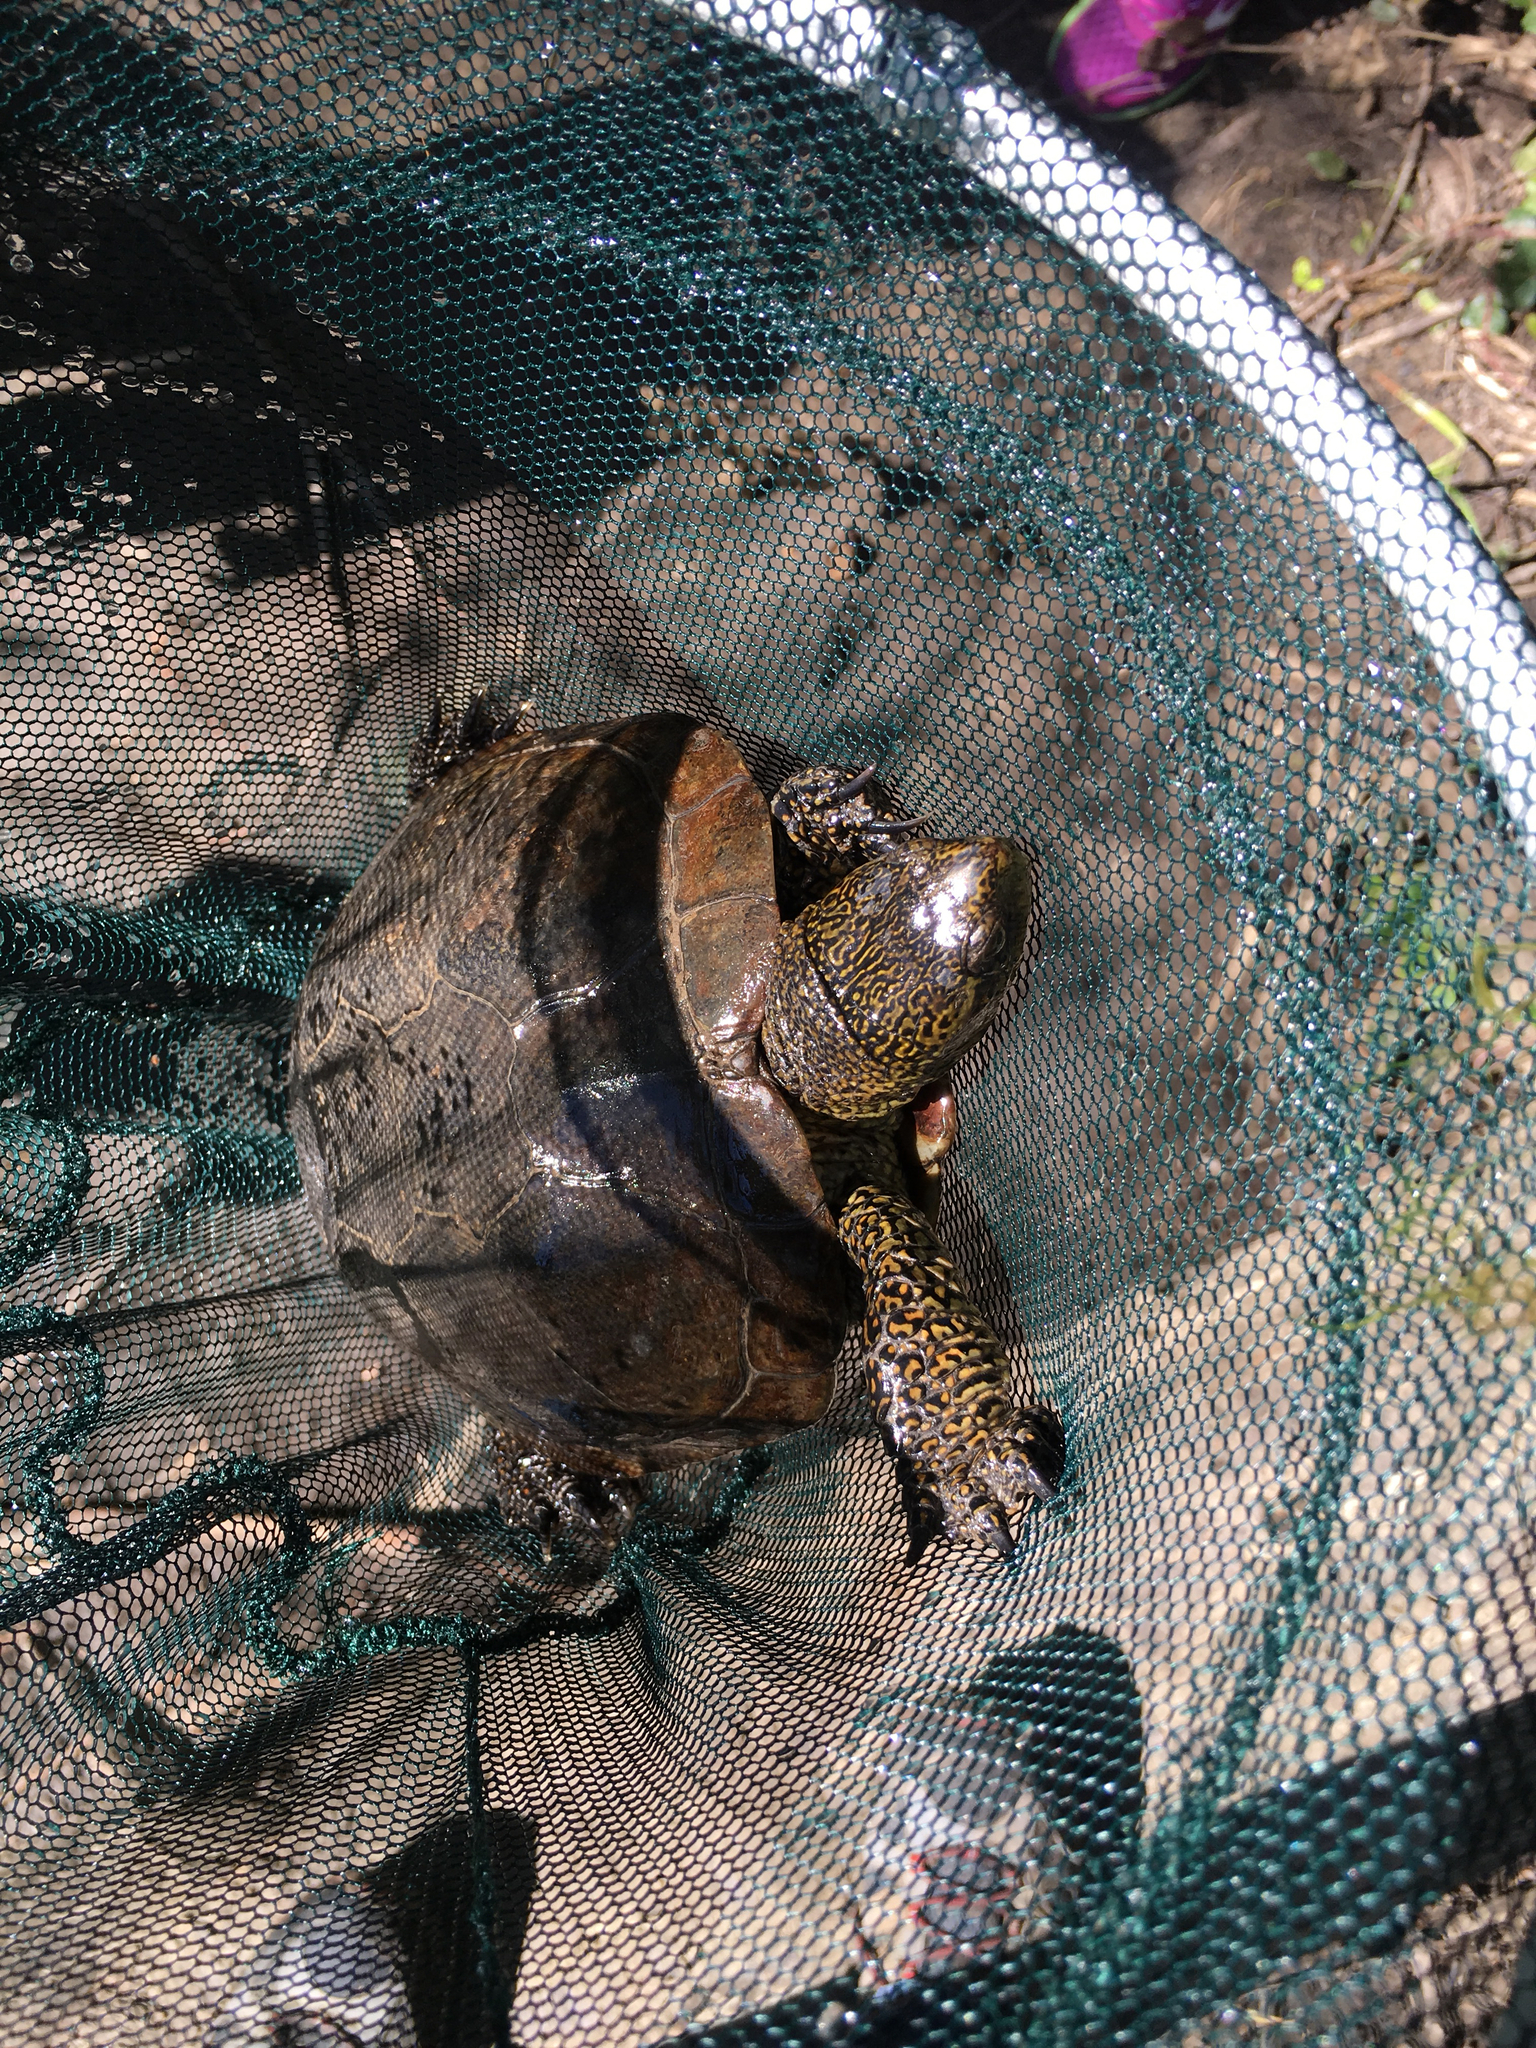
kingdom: Animalia
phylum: Chordata
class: Testudines
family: Emydidae
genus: Actinemys
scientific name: Actinemys marmorata
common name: Western pond turtle
